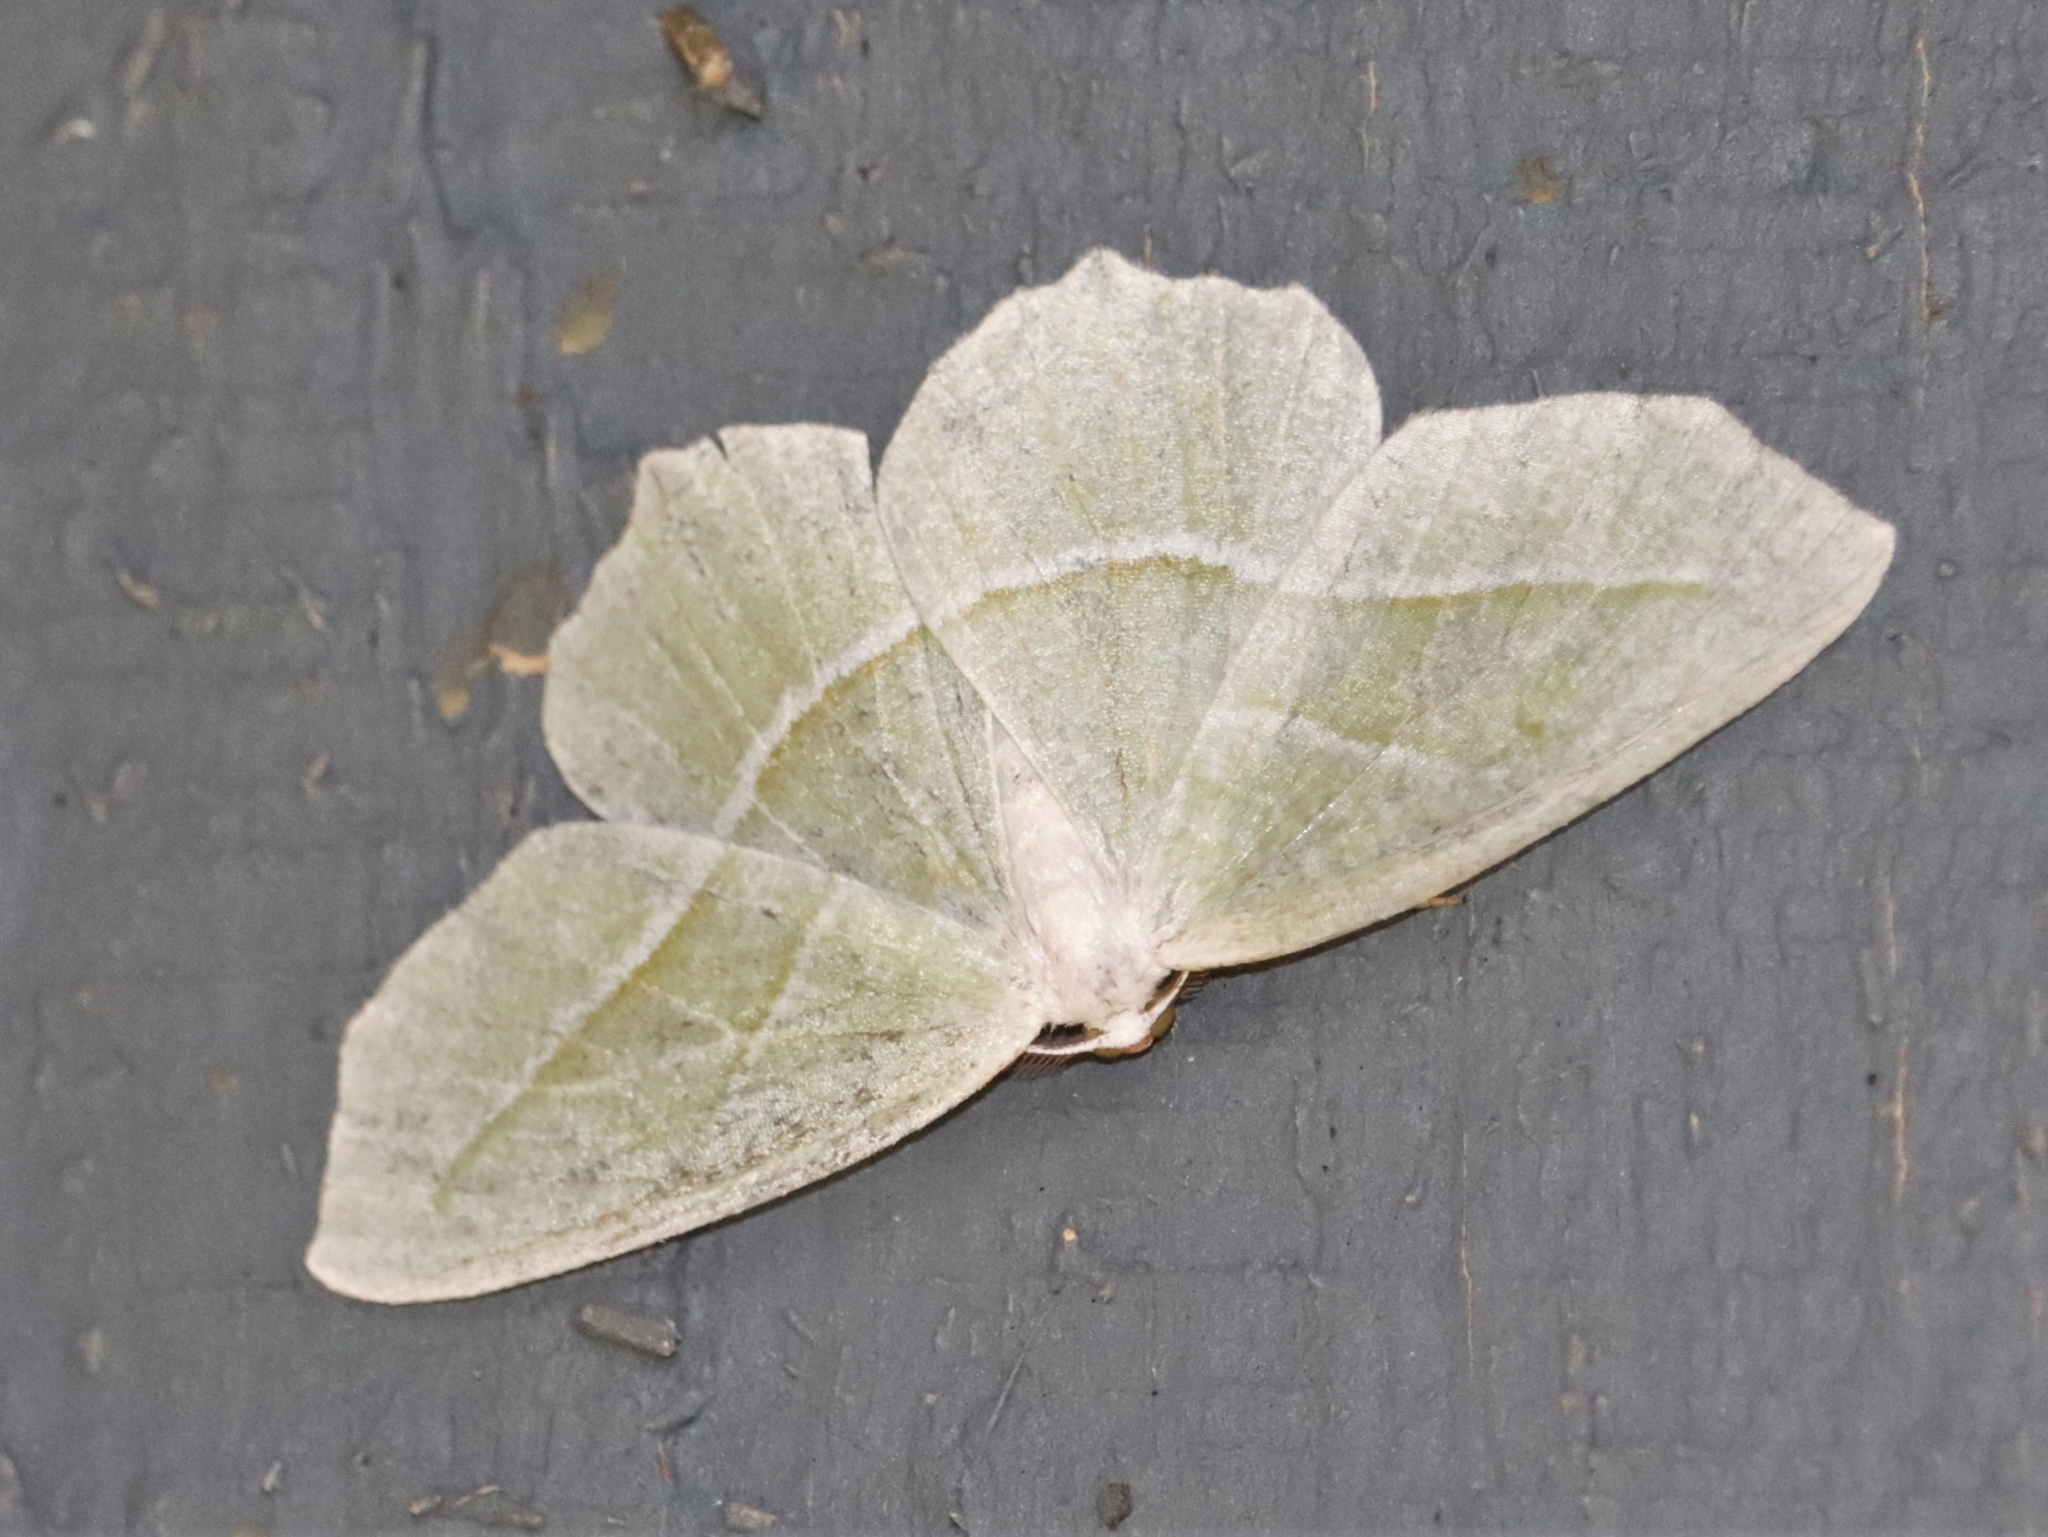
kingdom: Animalia
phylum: Arthropoda
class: Insecta
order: Lepidoptera
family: Geometridae
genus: Campaea
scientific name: Campaea perlata
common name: Fringed looper
